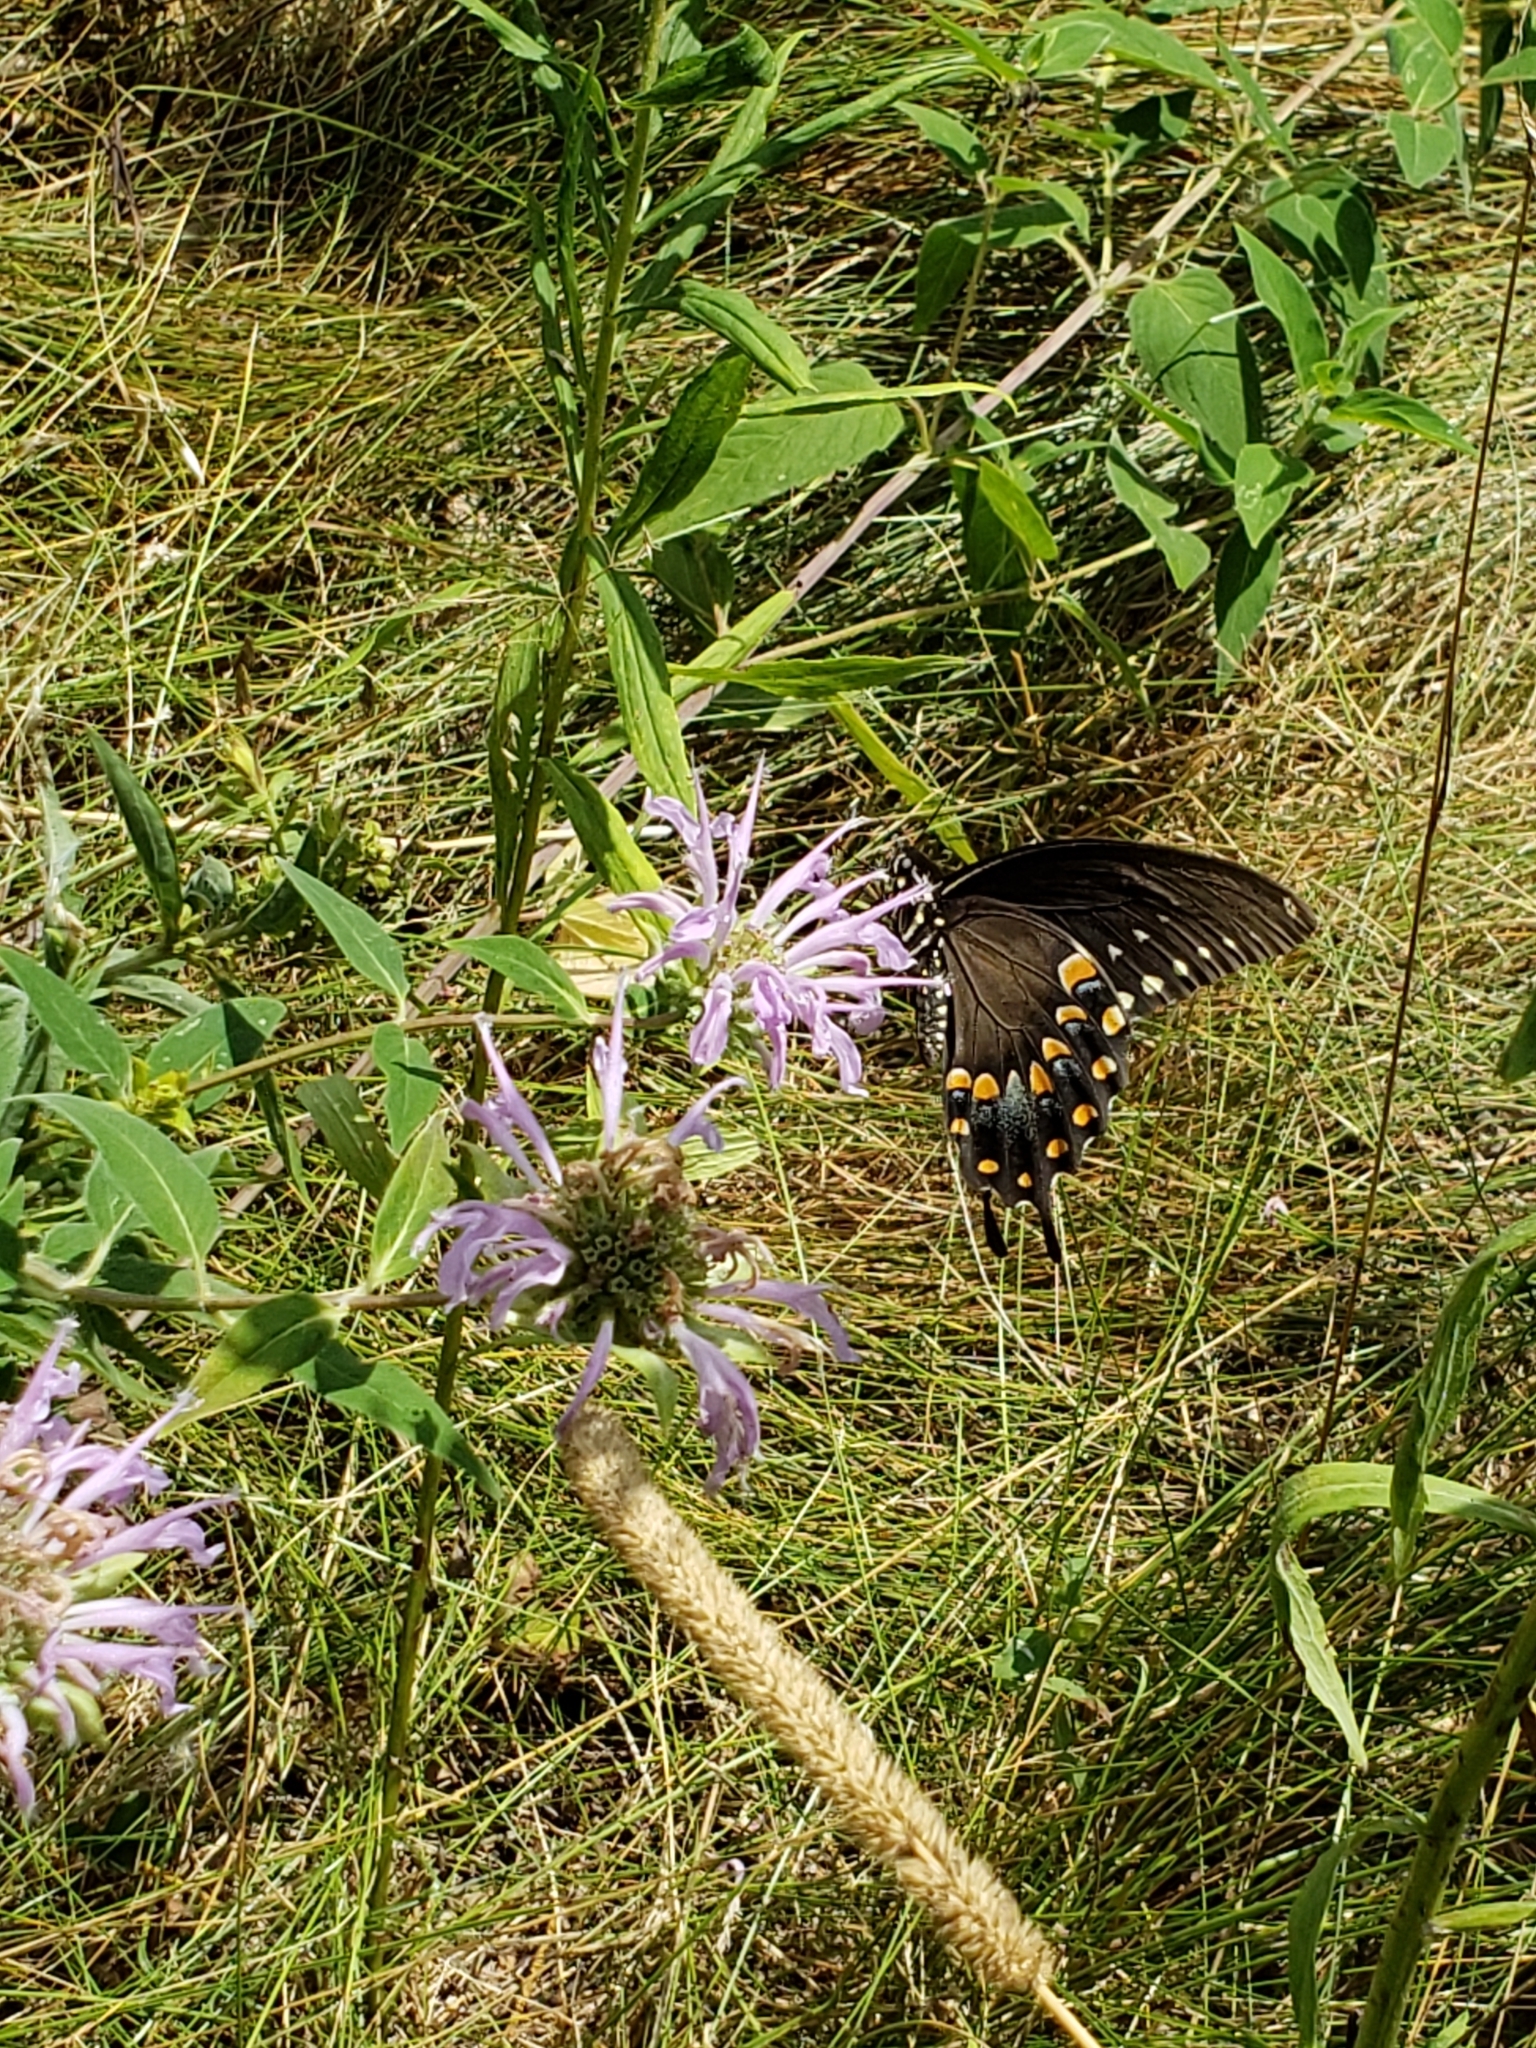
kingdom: Animalia
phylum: Arthropoda
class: Insecta
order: Lepidoptera
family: Papilionidae
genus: Papilio
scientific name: Papilio troilus
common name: Spicebush swallowtail
